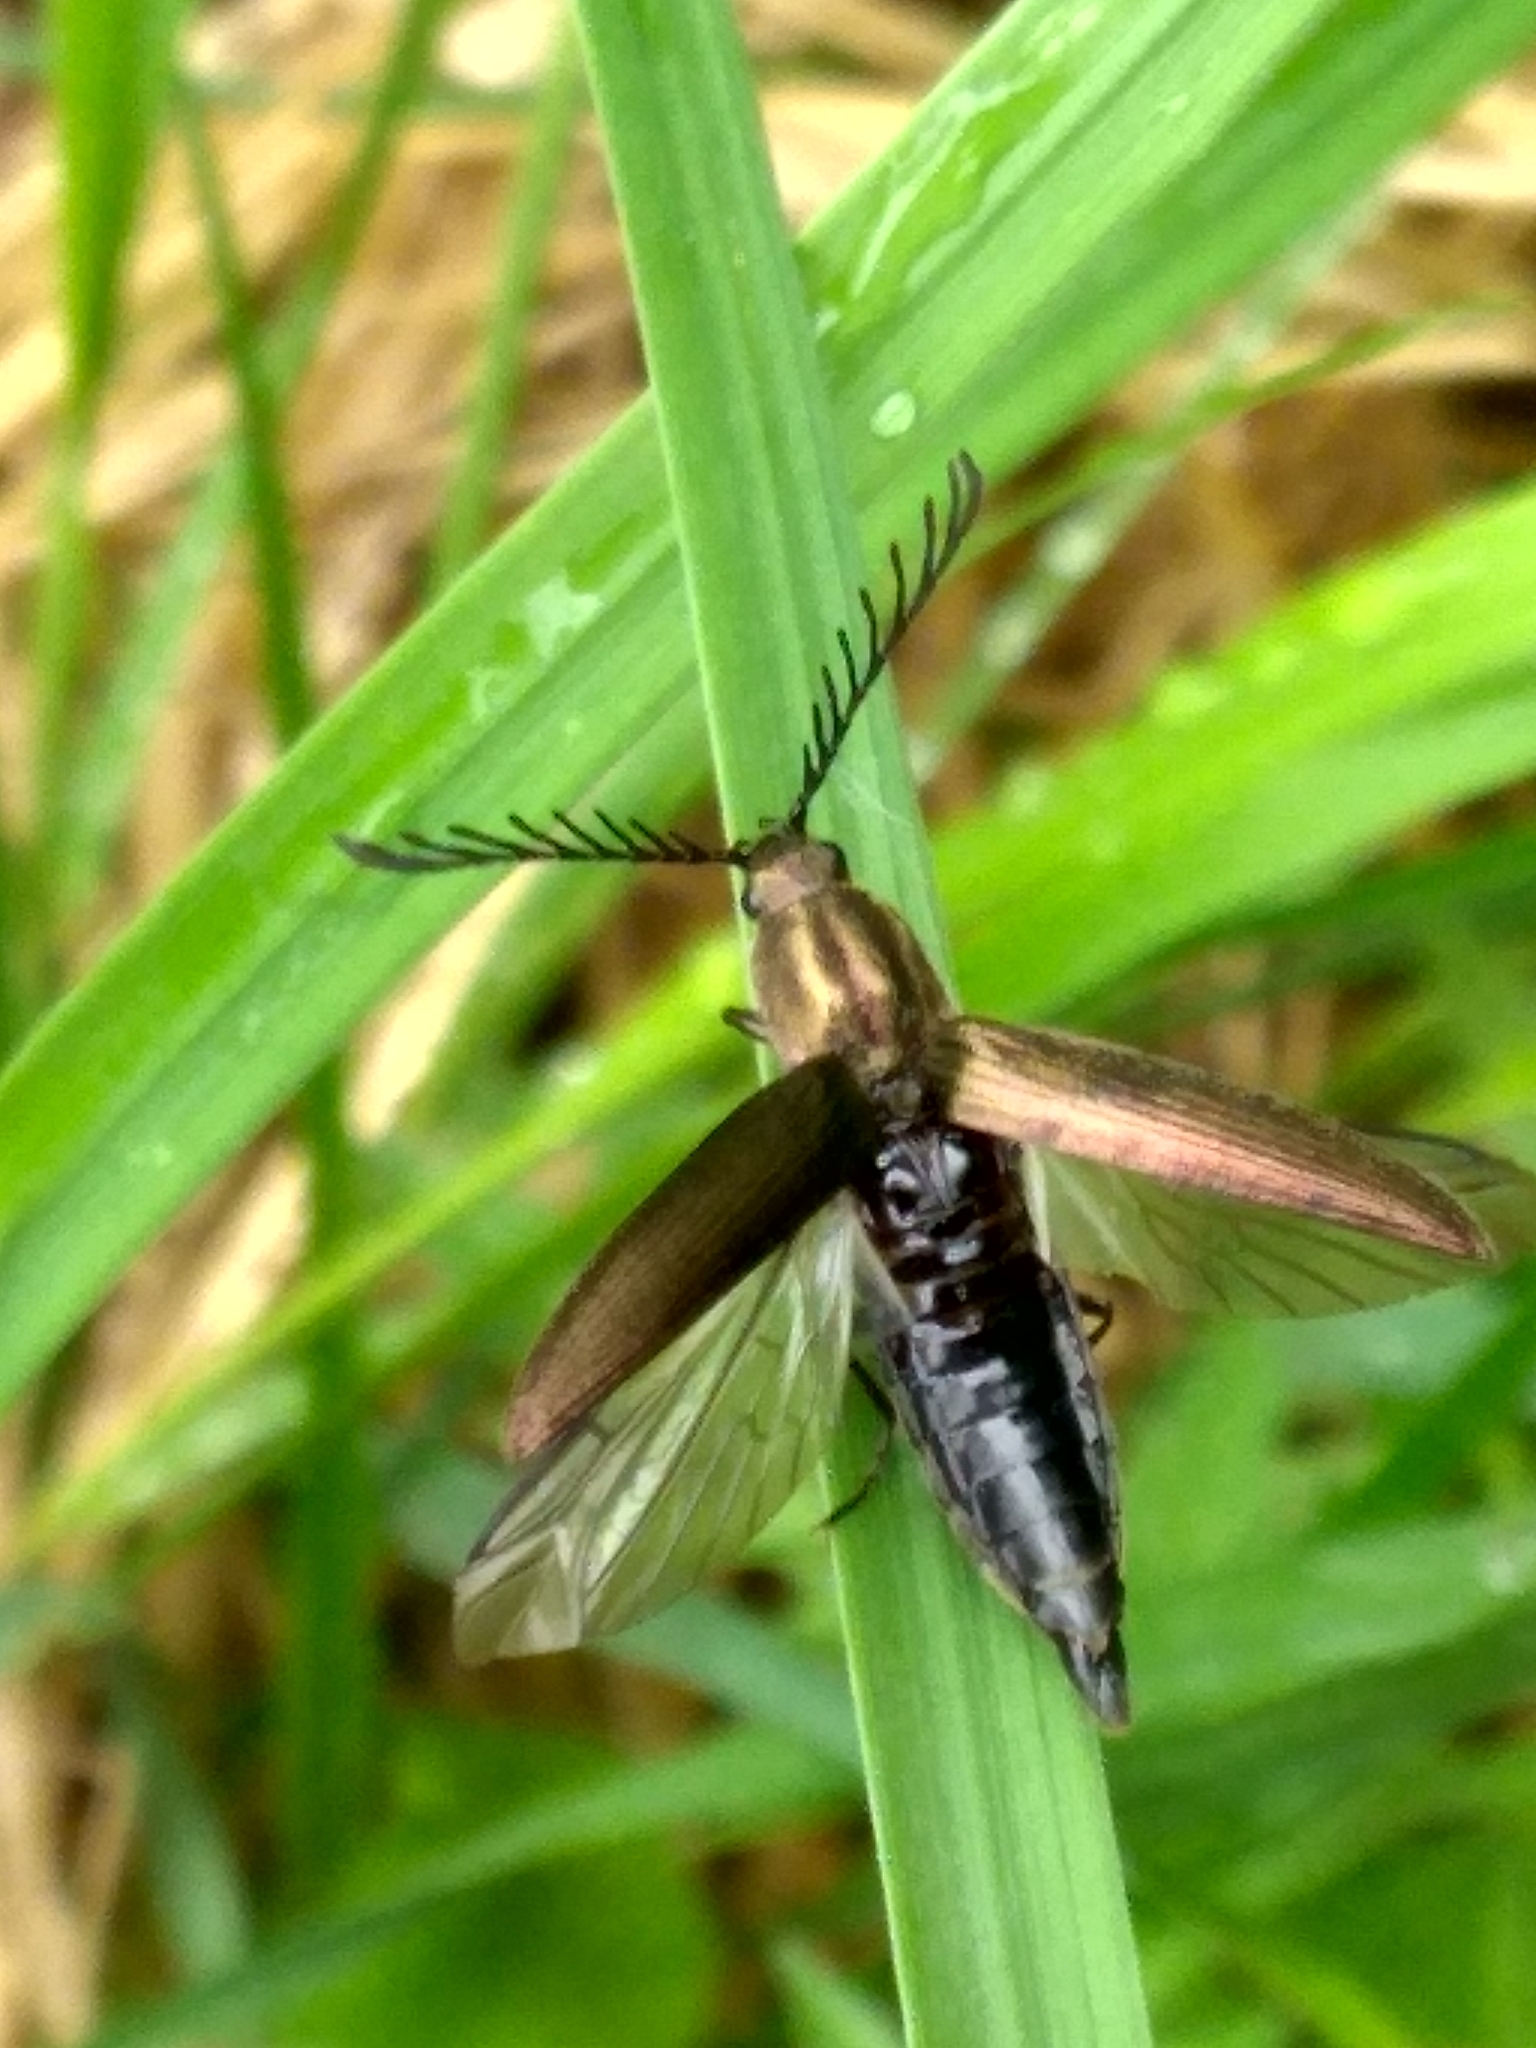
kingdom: Animalia
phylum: Arthropoda
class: Insecta
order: Coleoptera
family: Elateridae
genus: Ctenicera
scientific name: Ctenicera pectinicornis
